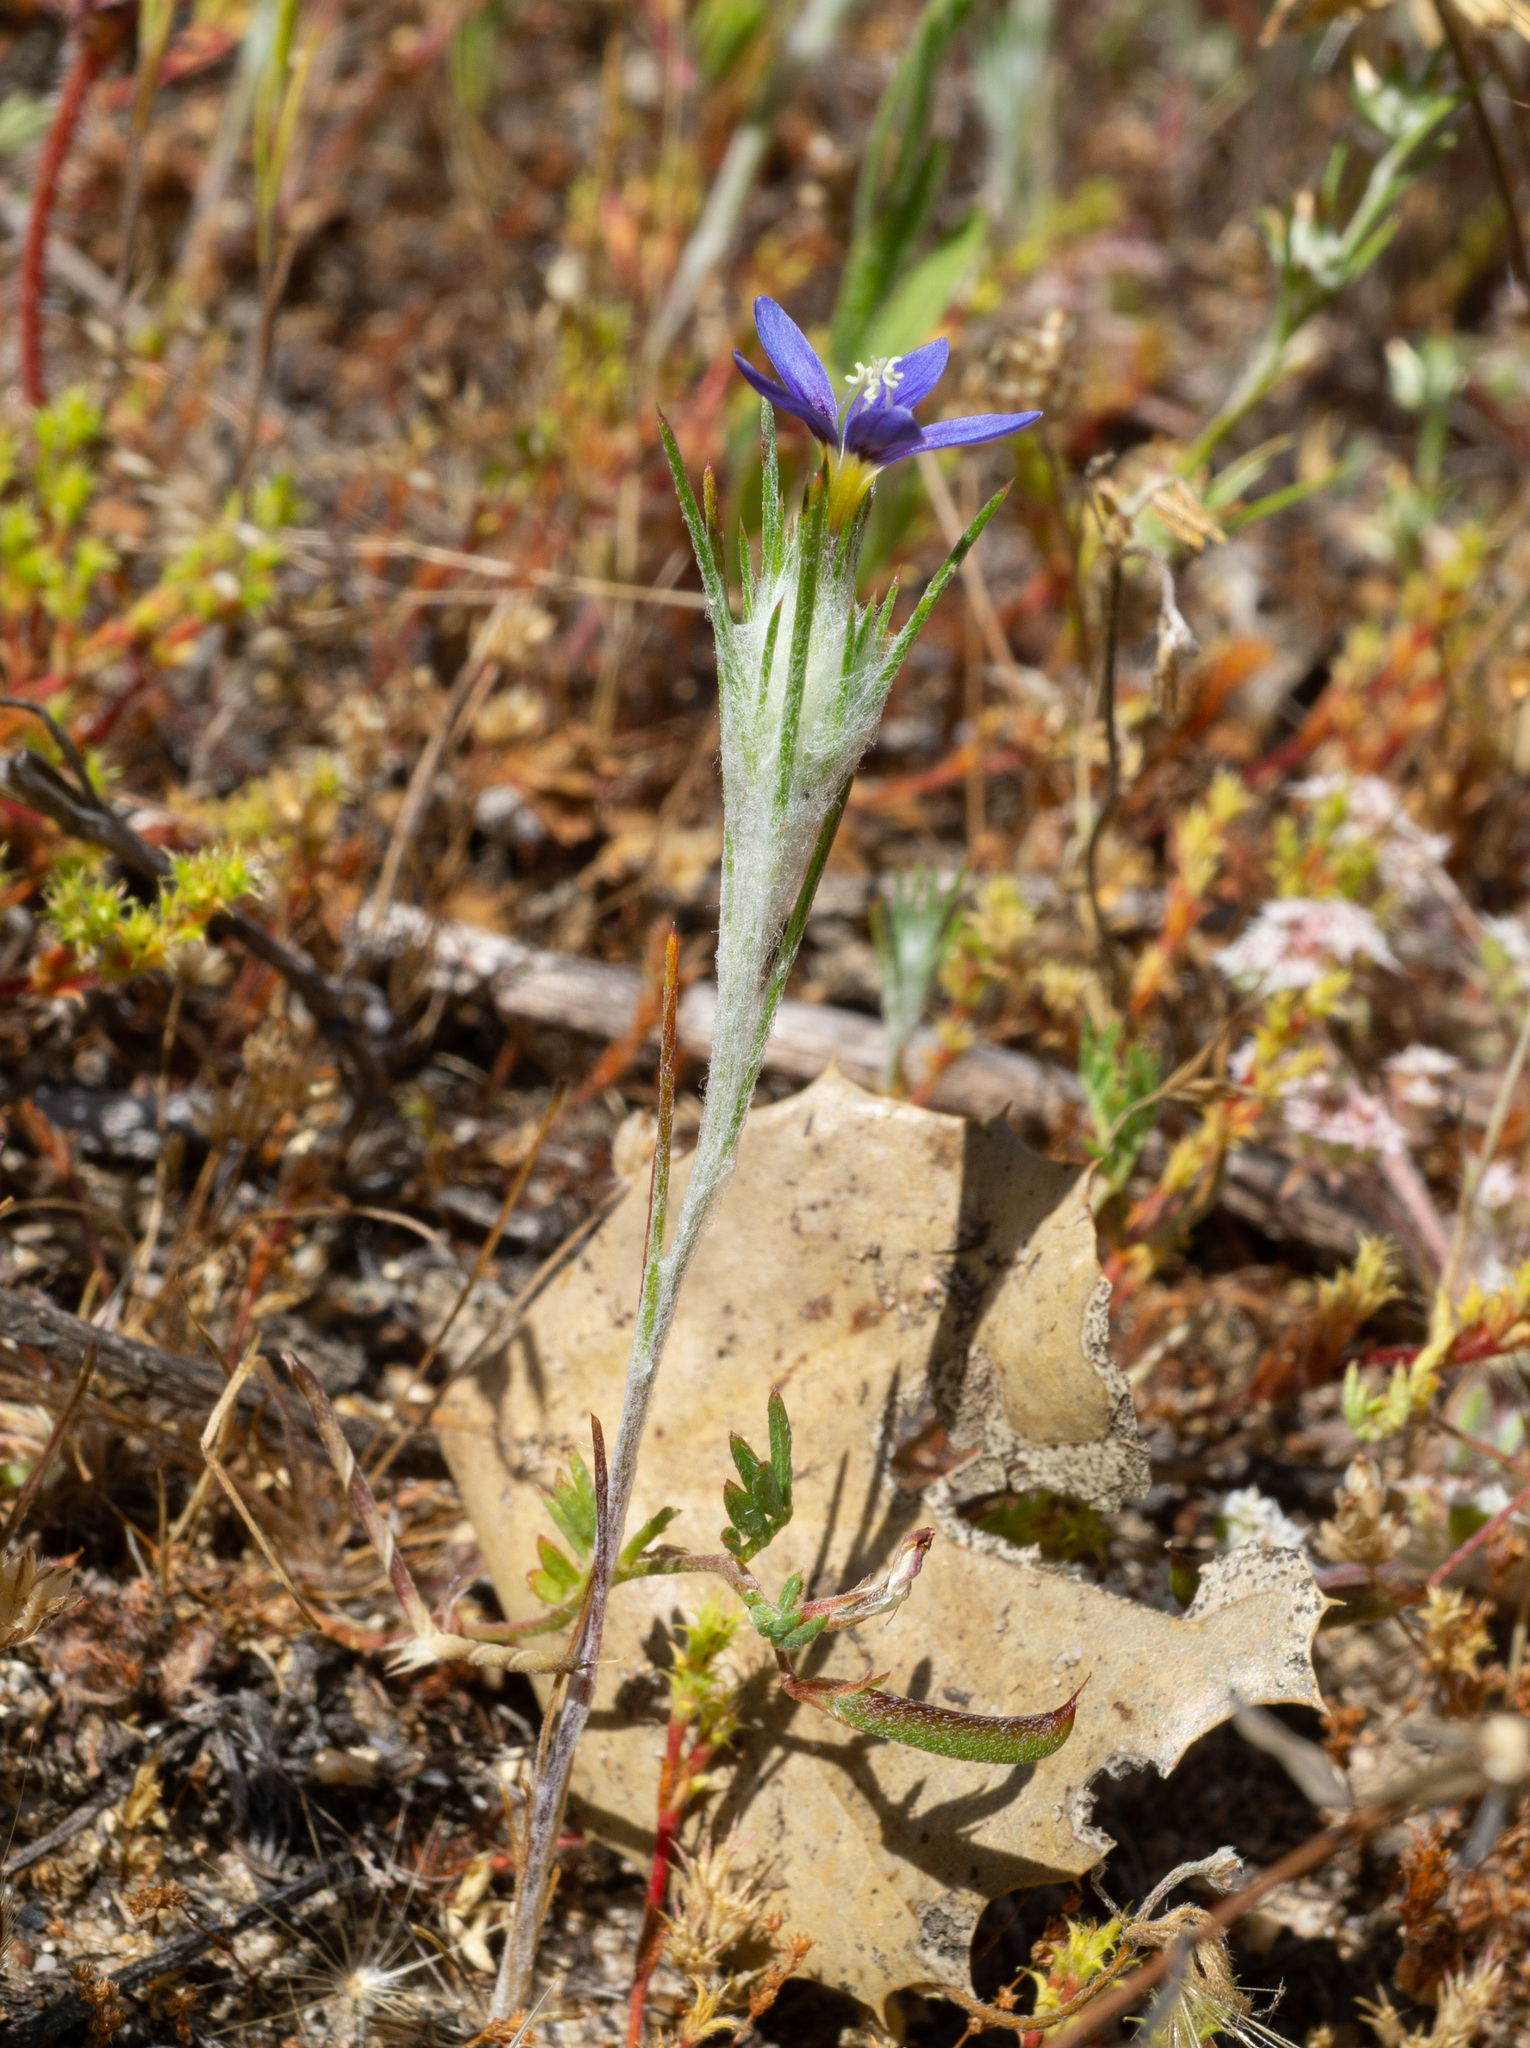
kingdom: Plantae
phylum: Tracheophyta
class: Magnoliopsida
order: Ericales
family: Polemoniaceae
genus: Eriastrum
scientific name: Eriastrum virgatum
